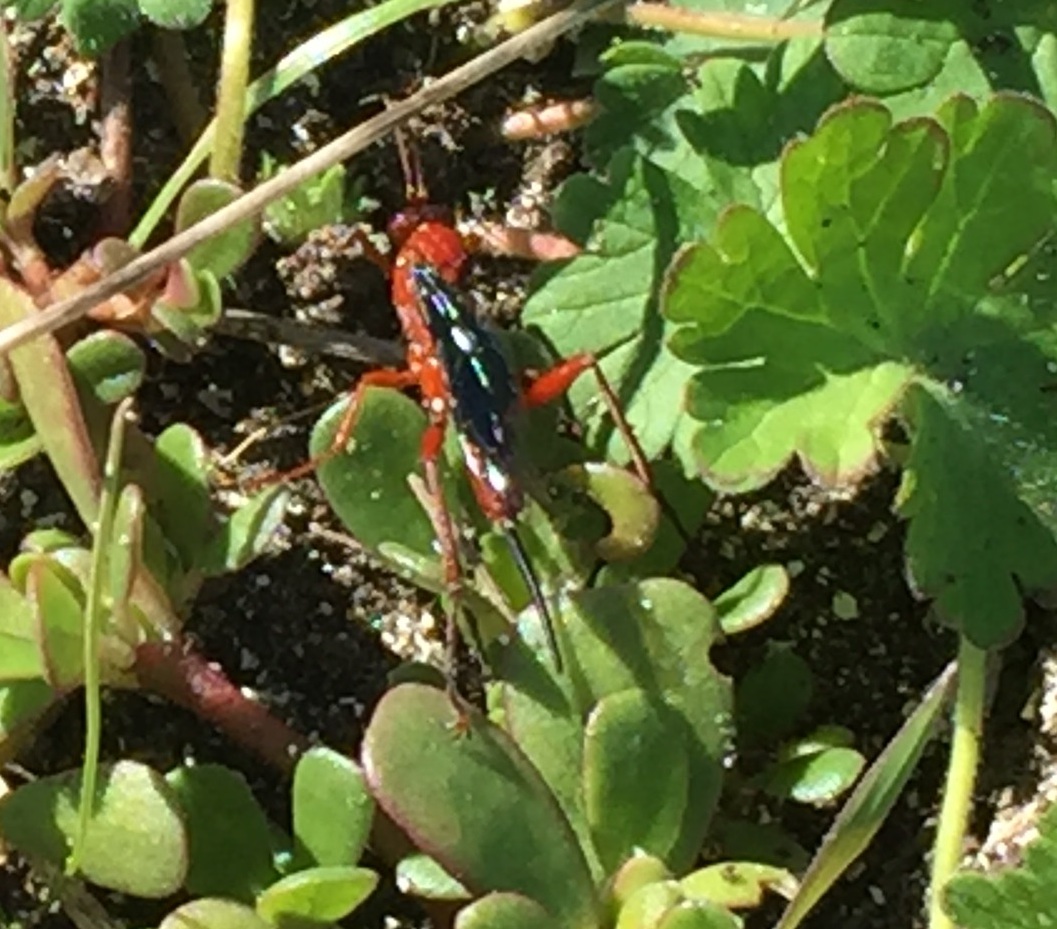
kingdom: Animalia
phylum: Arthropoda
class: Insecta
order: Hymenoptera
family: Ichneumonidae
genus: Lissopimpla
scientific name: Lissopimpla excelsa
